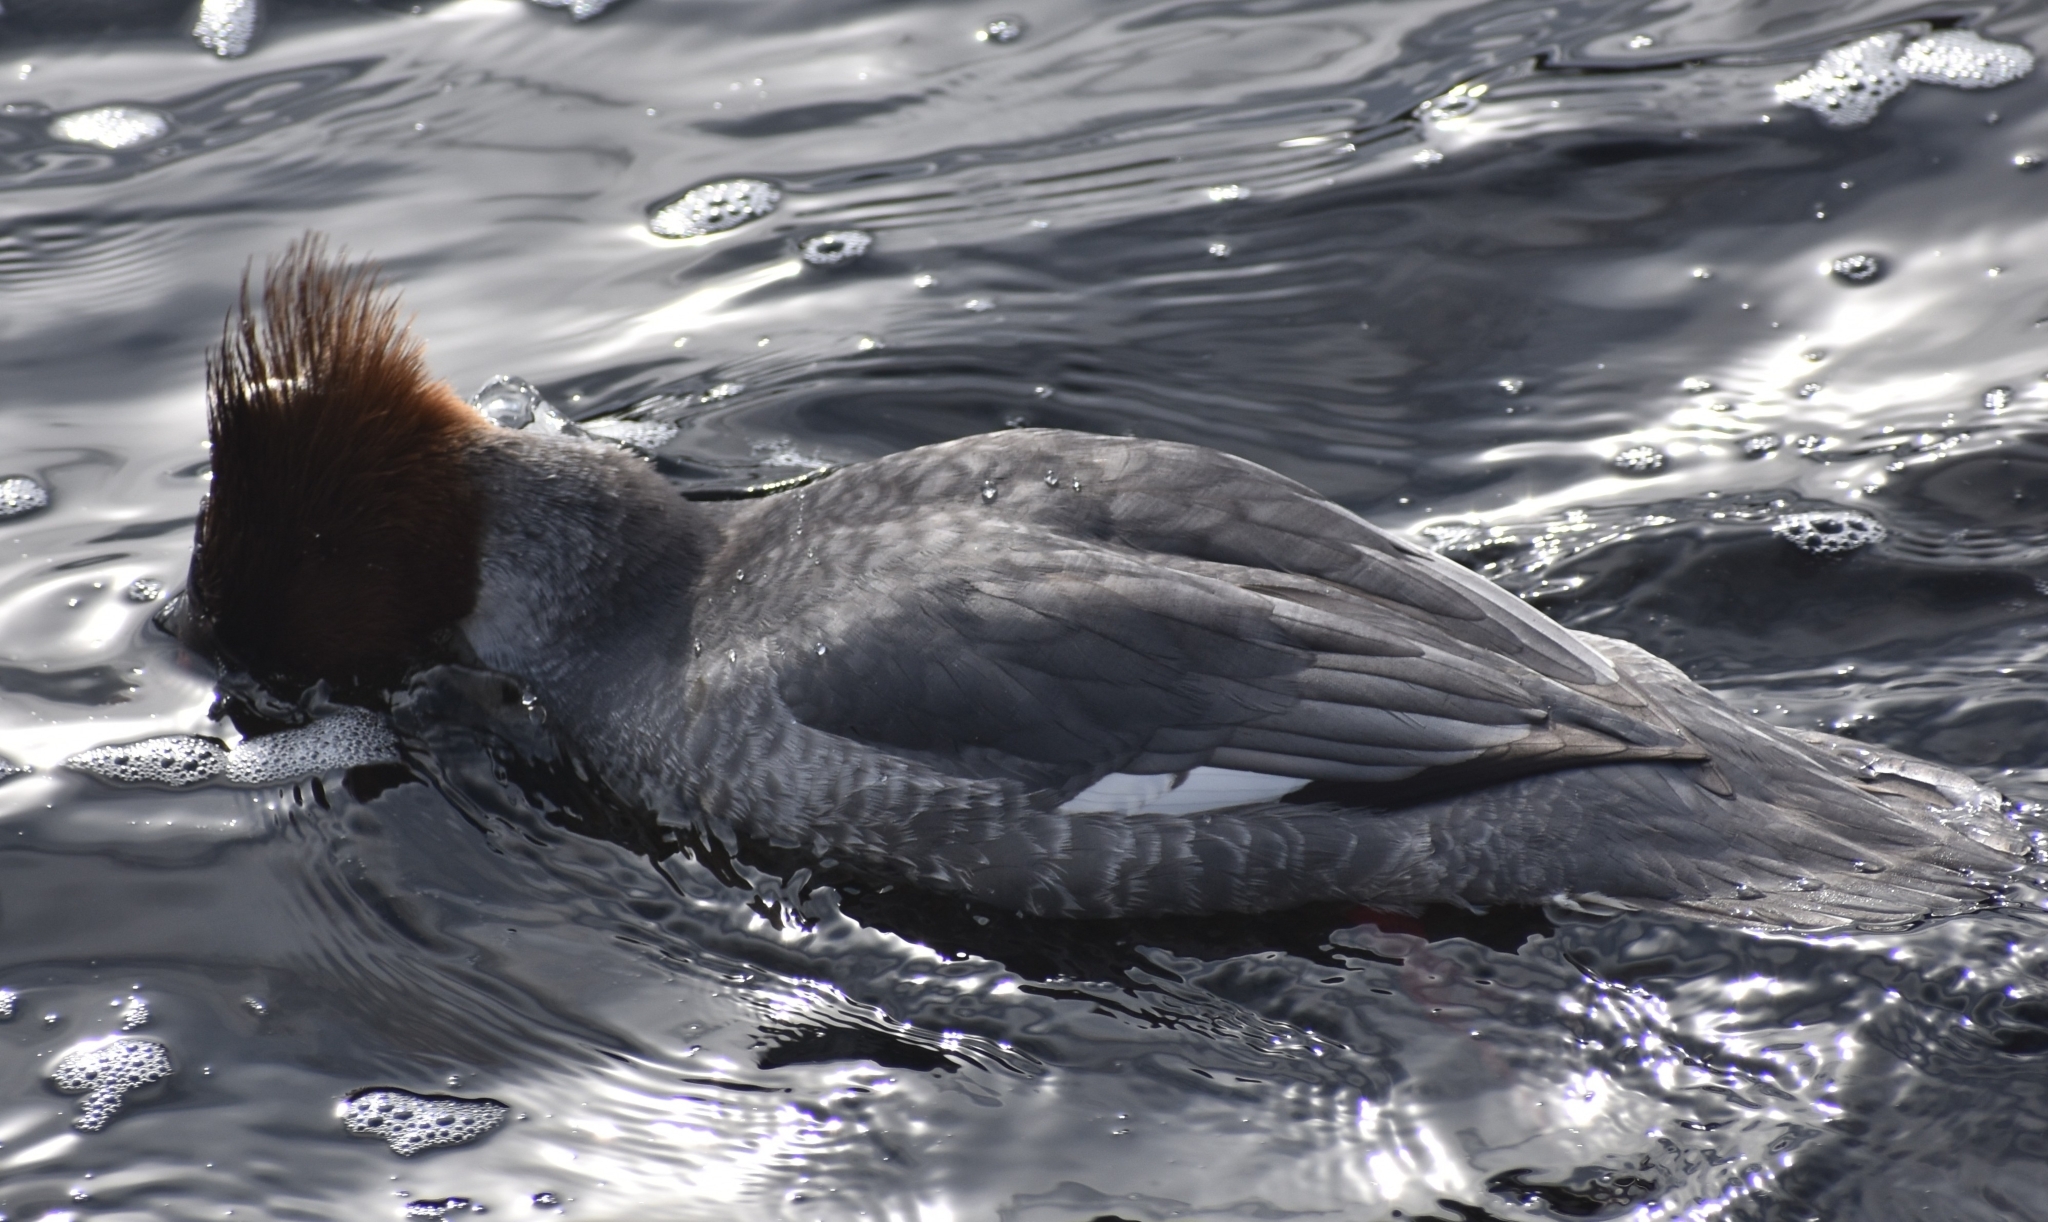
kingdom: Animalia
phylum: Chordata
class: Aves
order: Anseriformes
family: Anatidae
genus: Mergus
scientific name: Mergus merganser
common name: Common merganser
